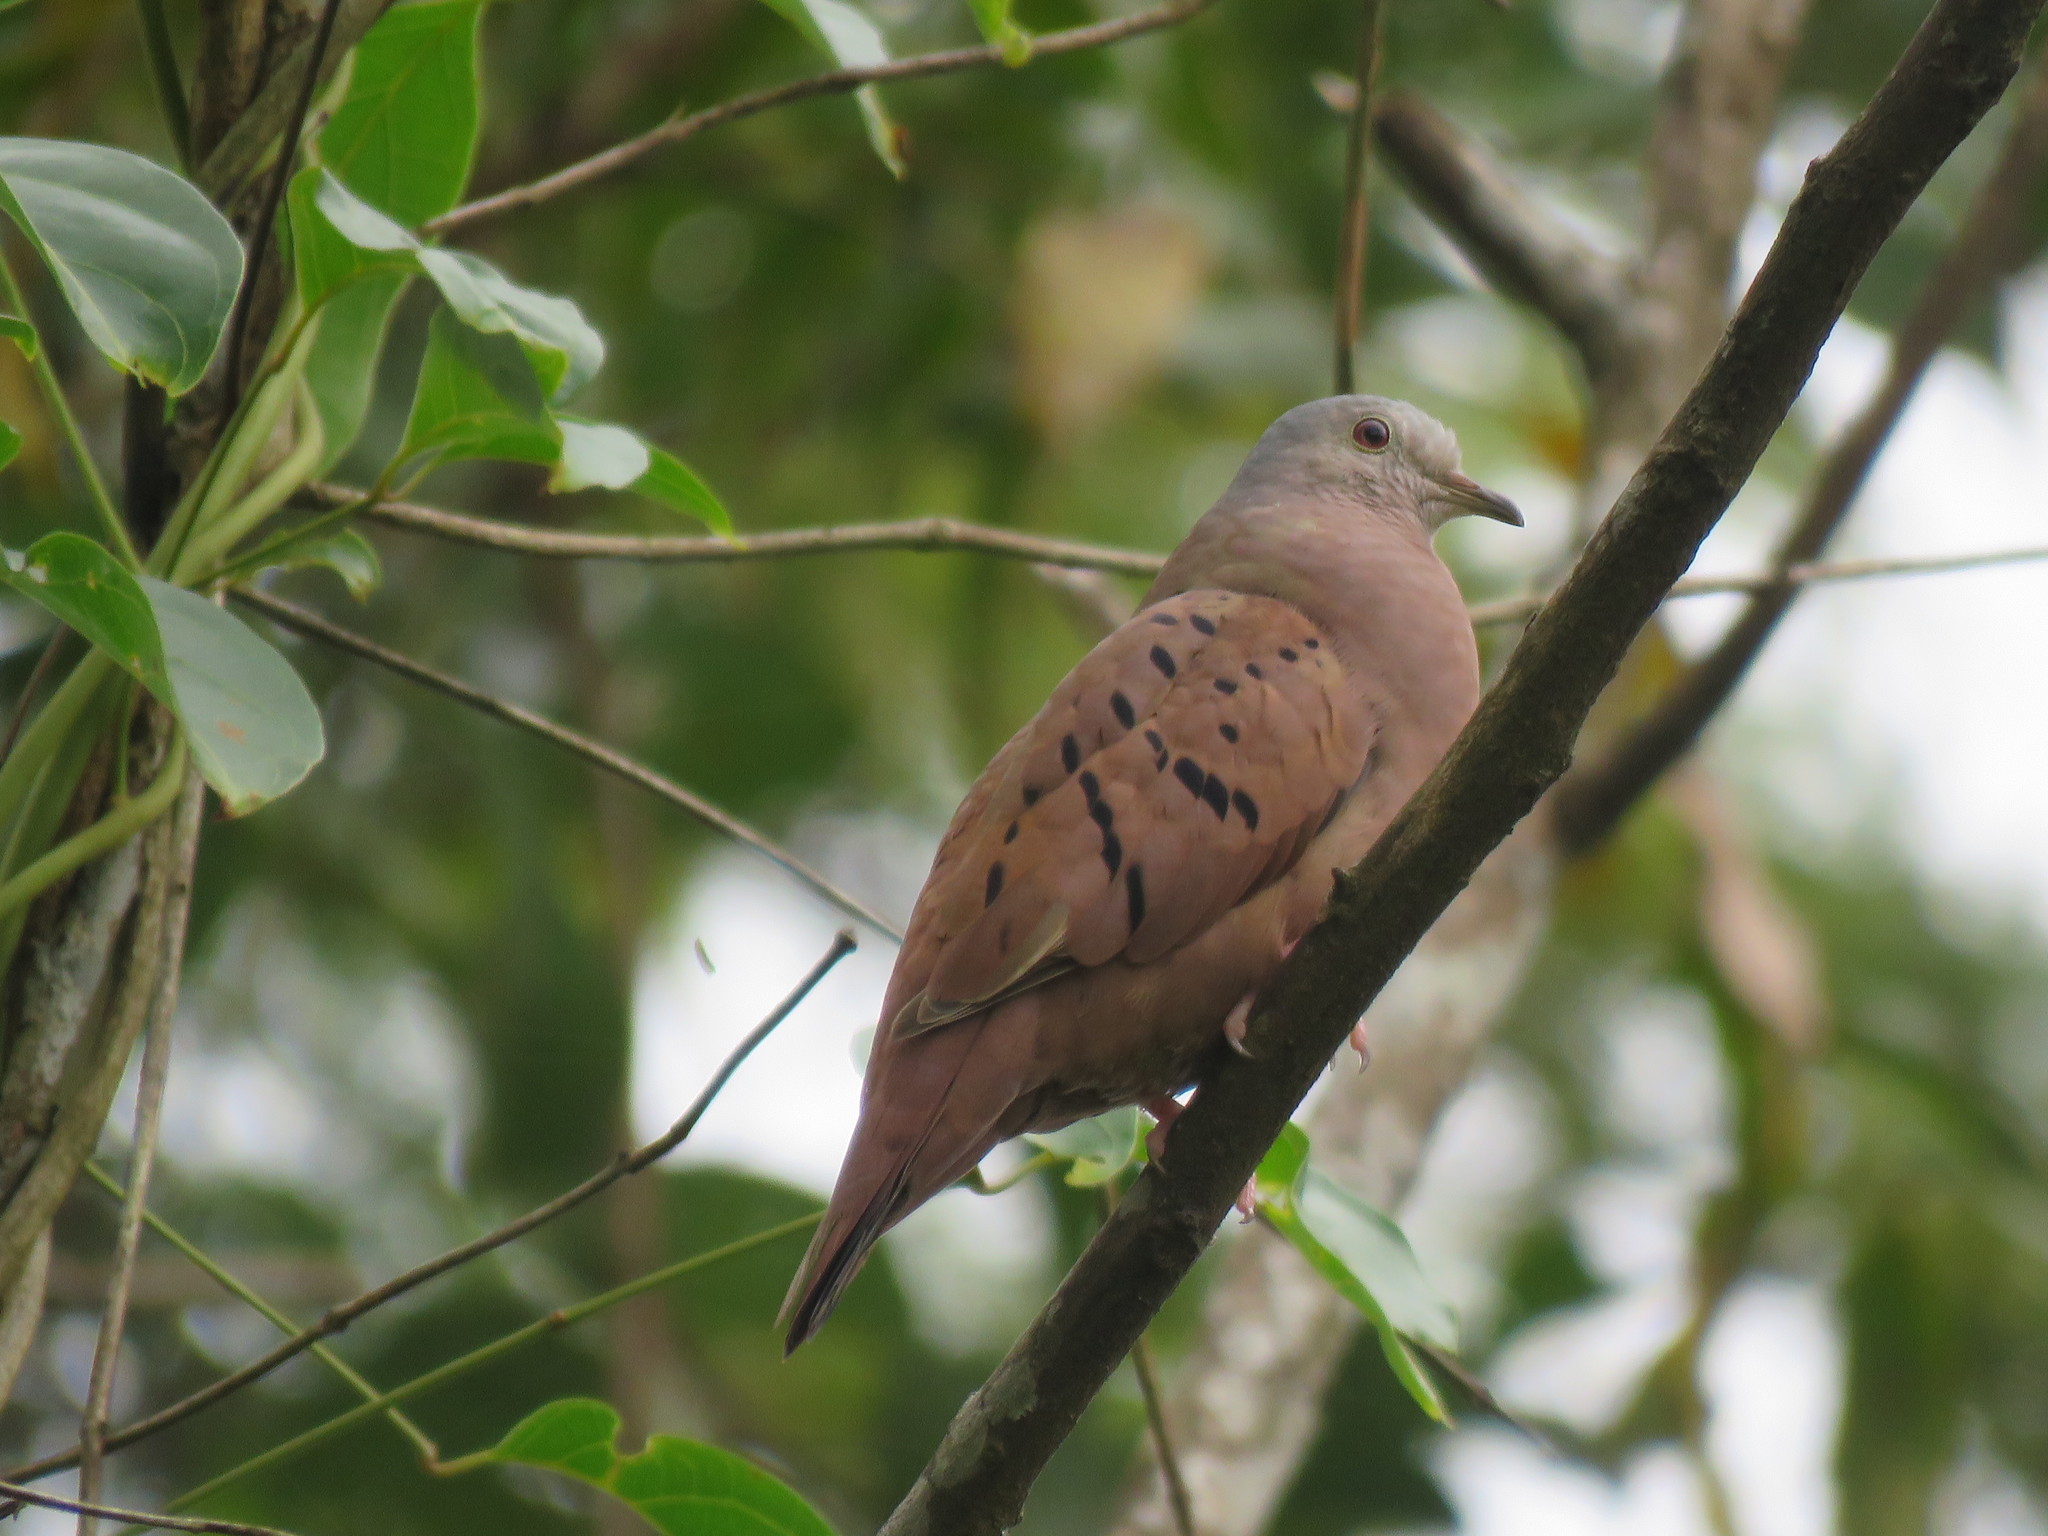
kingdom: Animalia
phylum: Chordata
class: Aves
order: Columbiformes
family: Columbidae
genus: Columbina
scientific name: Columbina talpacoti
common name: Ruddy ground dove
